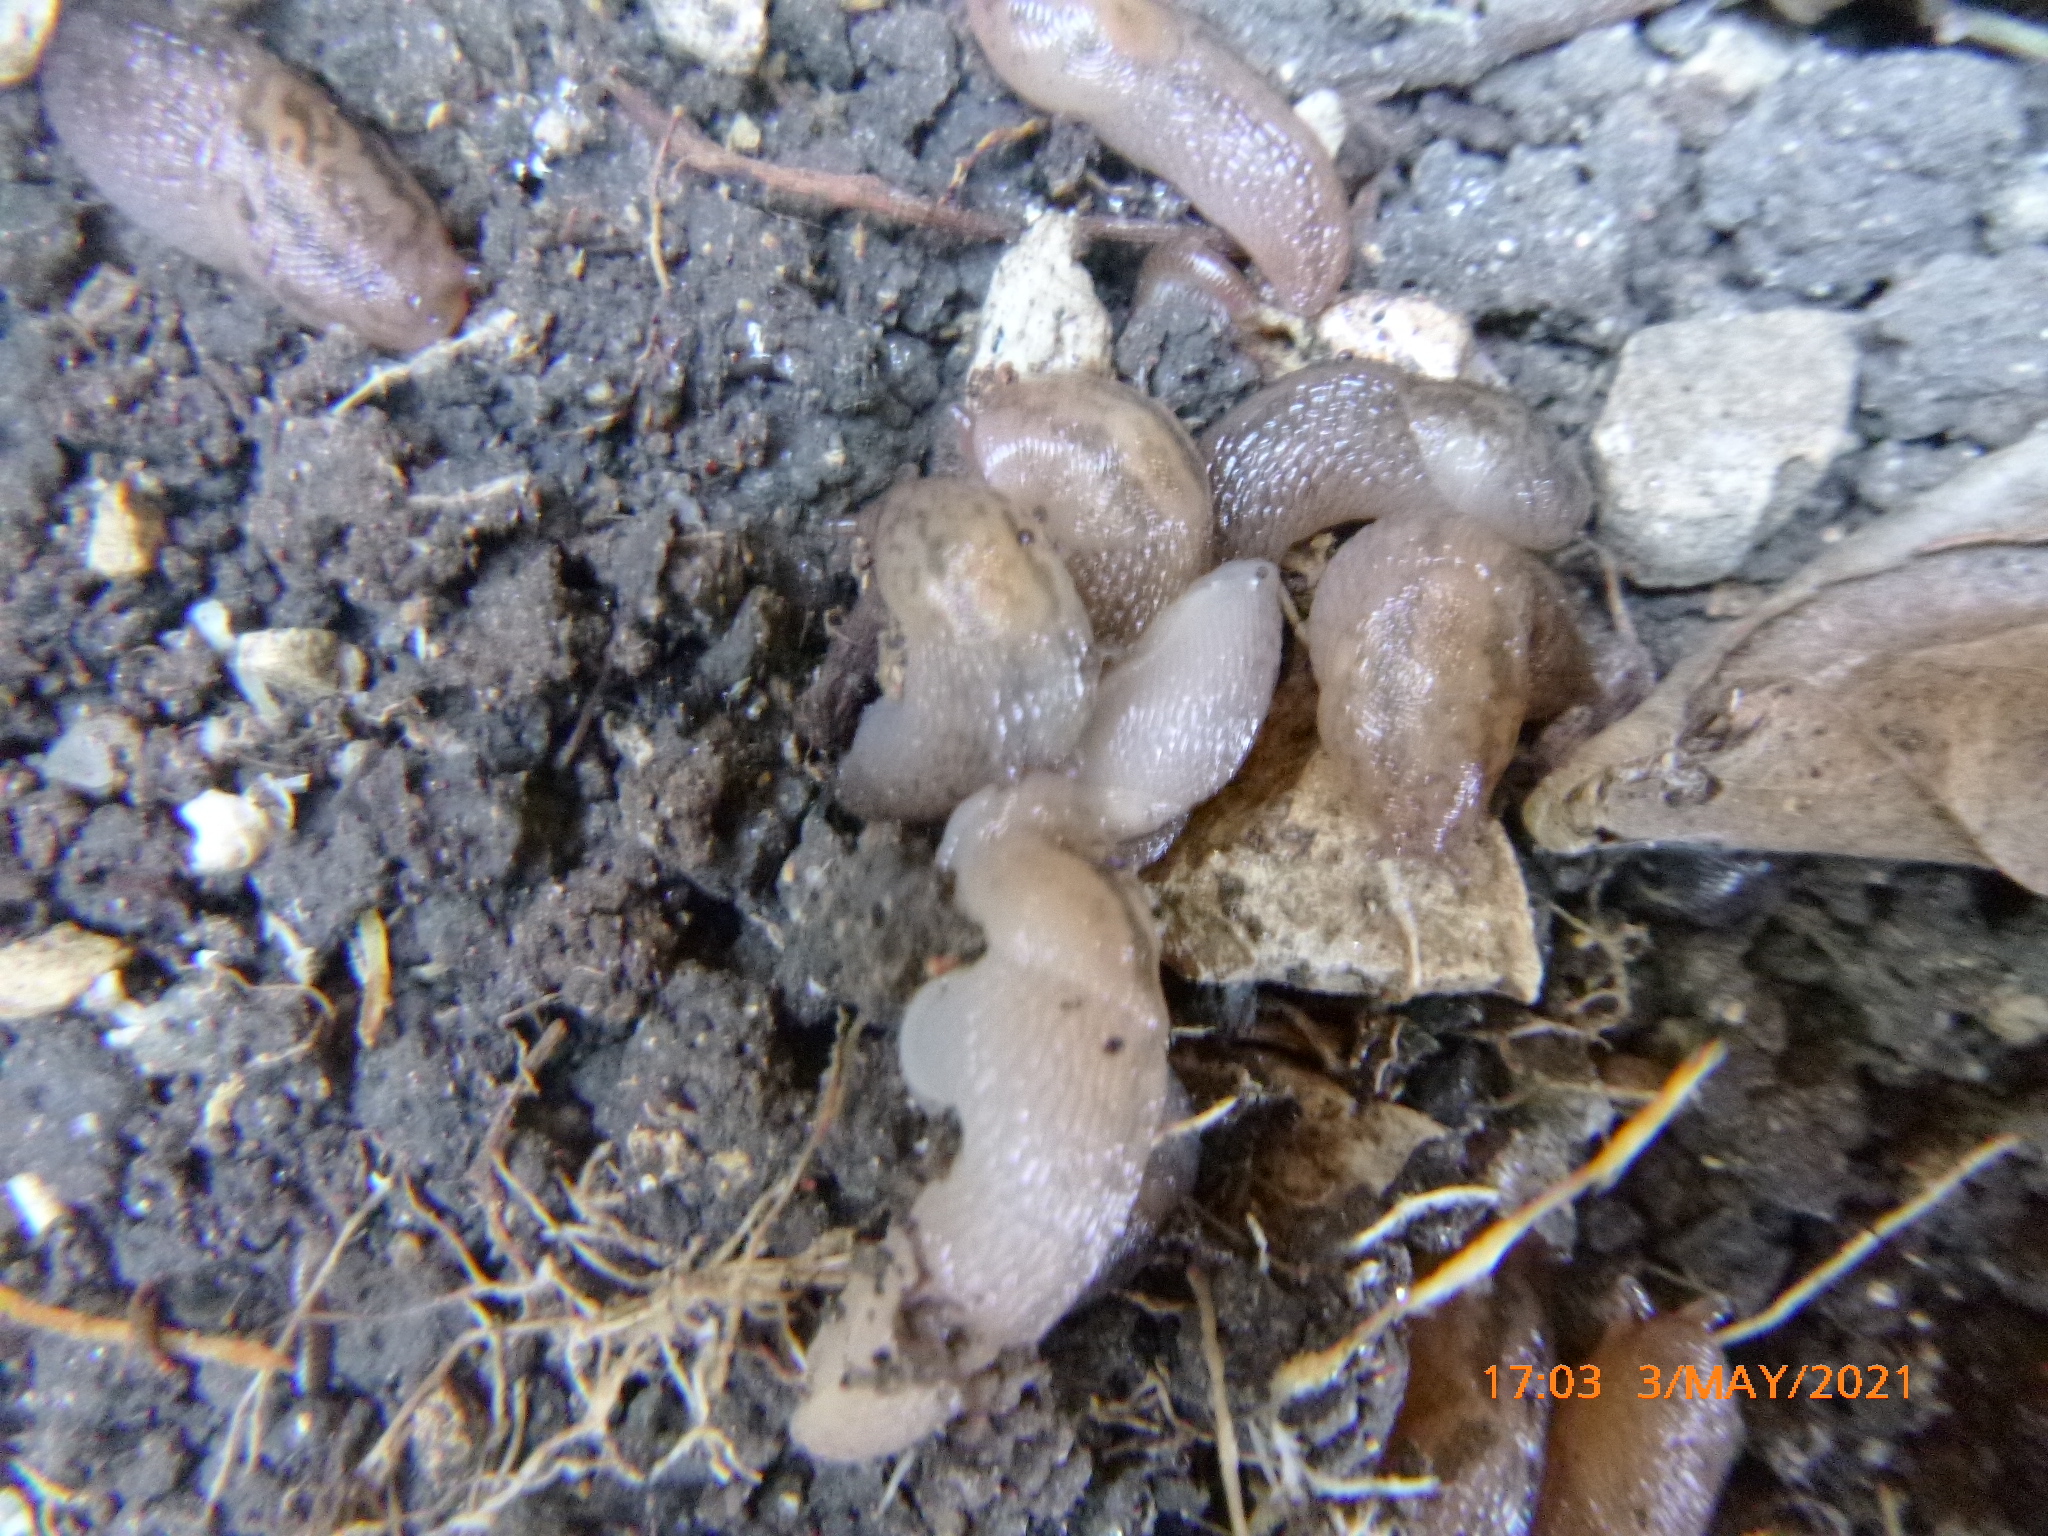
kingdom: Animalia
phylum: Mollusca
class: Gastropoda
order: Stylommatophora
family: Limacidae
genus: Ambigolimax
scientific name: Ambigolimax
